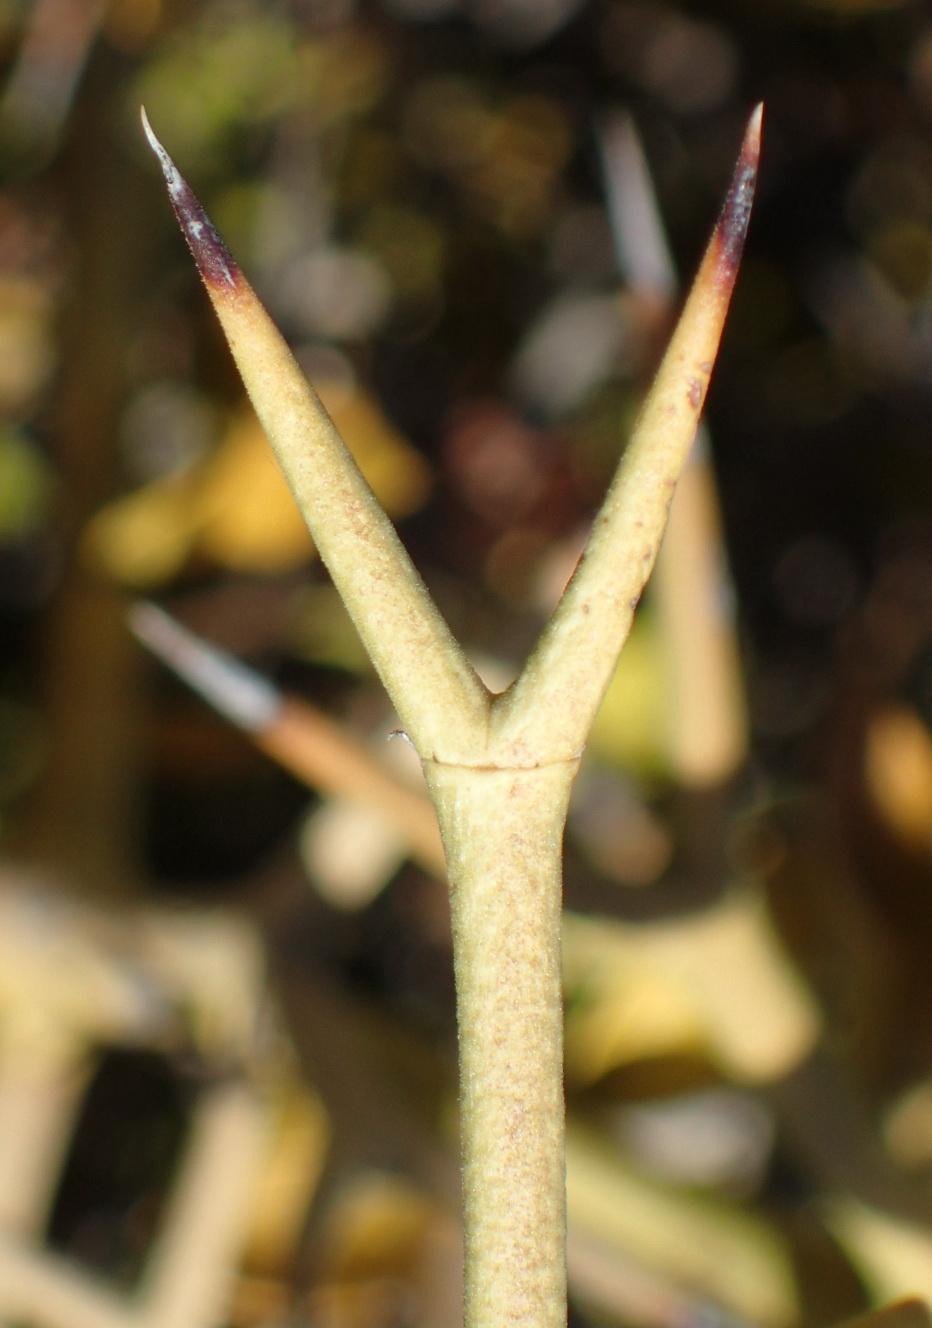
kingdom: Plantae
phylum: Tracheophyta
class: Magnoliopsida
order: Gentianales
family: Apocynaceae
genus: Carissa
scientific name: Carissa haematocarpa
